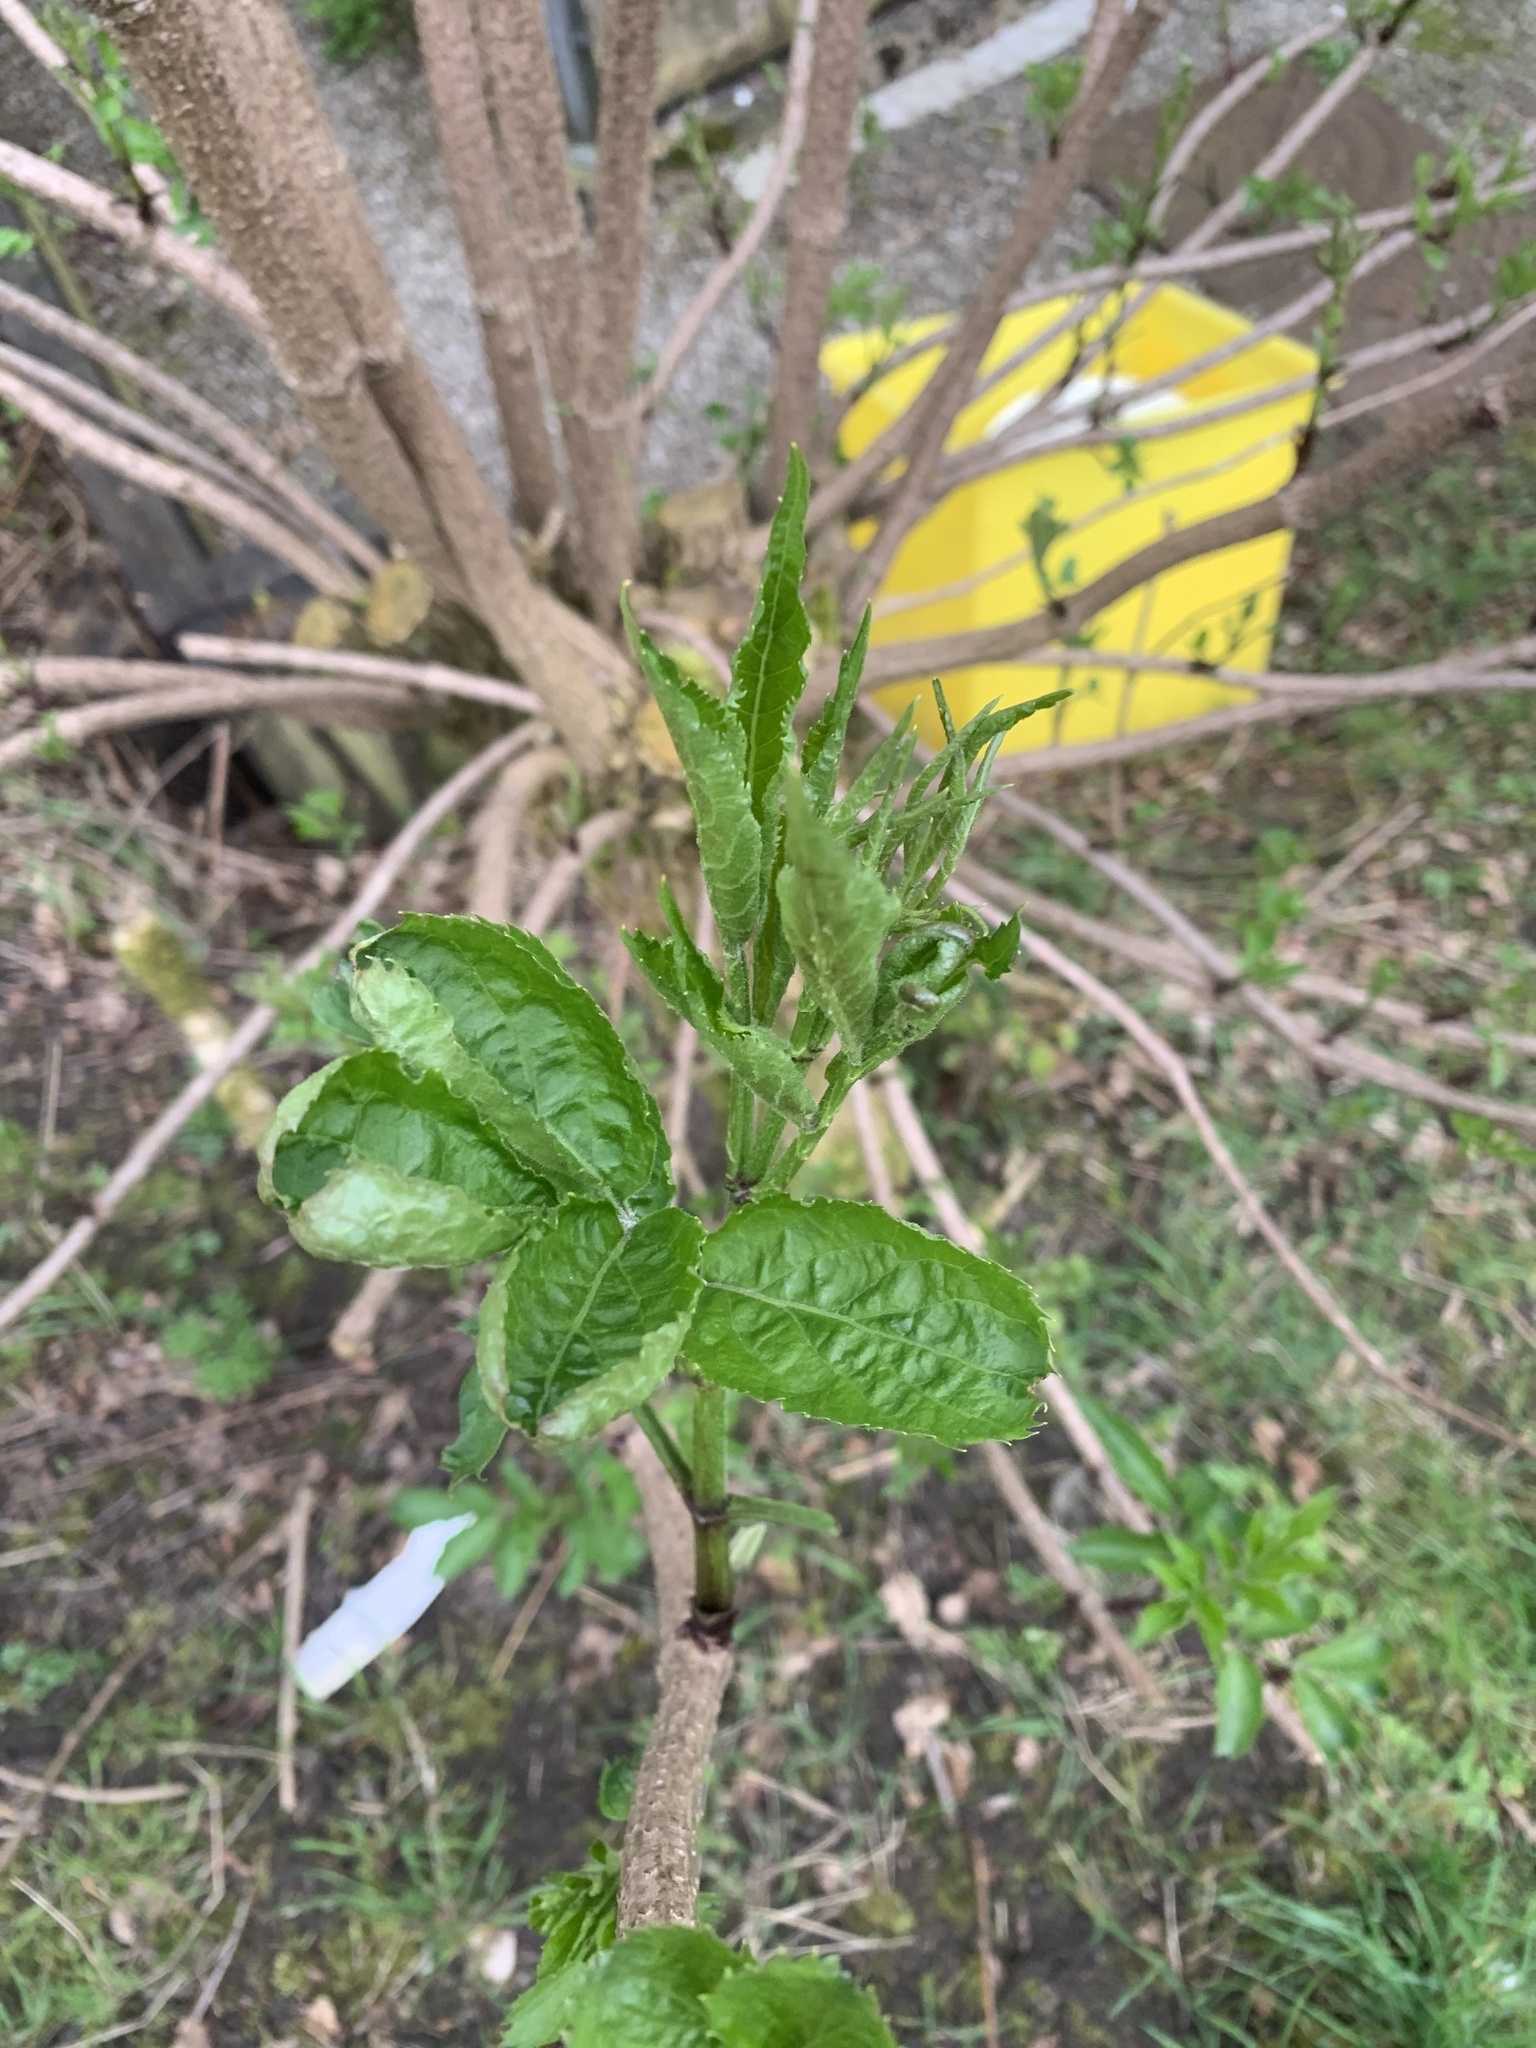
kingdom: Plantae
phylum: Tracheophyta
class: Magnoliopsida
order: Dipsacales
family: Viburnaceae
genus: Sambucus
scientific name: Sambucus nigra
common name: Elder
